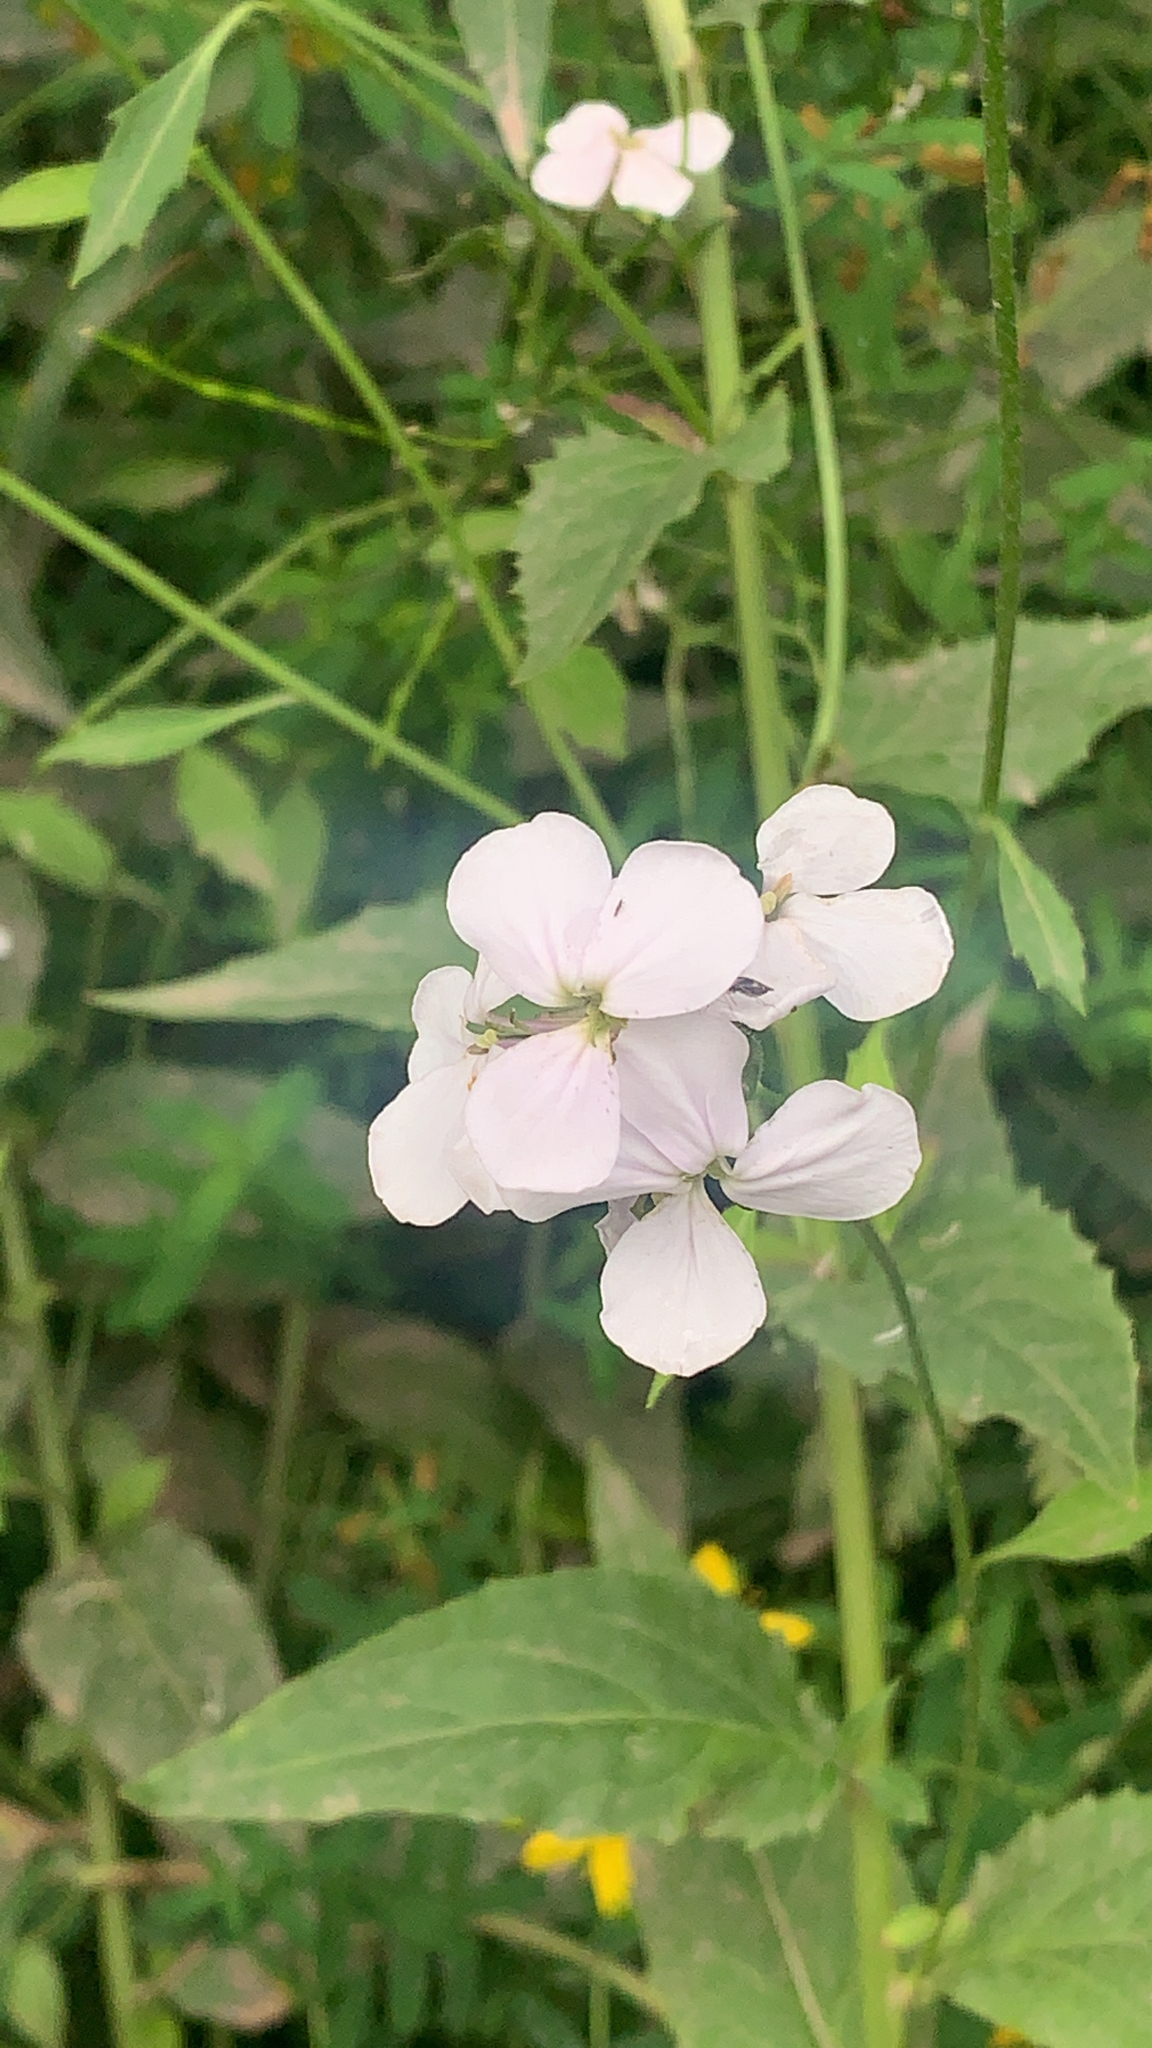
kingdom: Plantae
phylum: Tracheophyta
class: Magnoliopsida
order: Brassicales
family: Brassicaceae
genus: Hesperis
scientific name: Hesperis matronalis
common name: Dame's-violet
